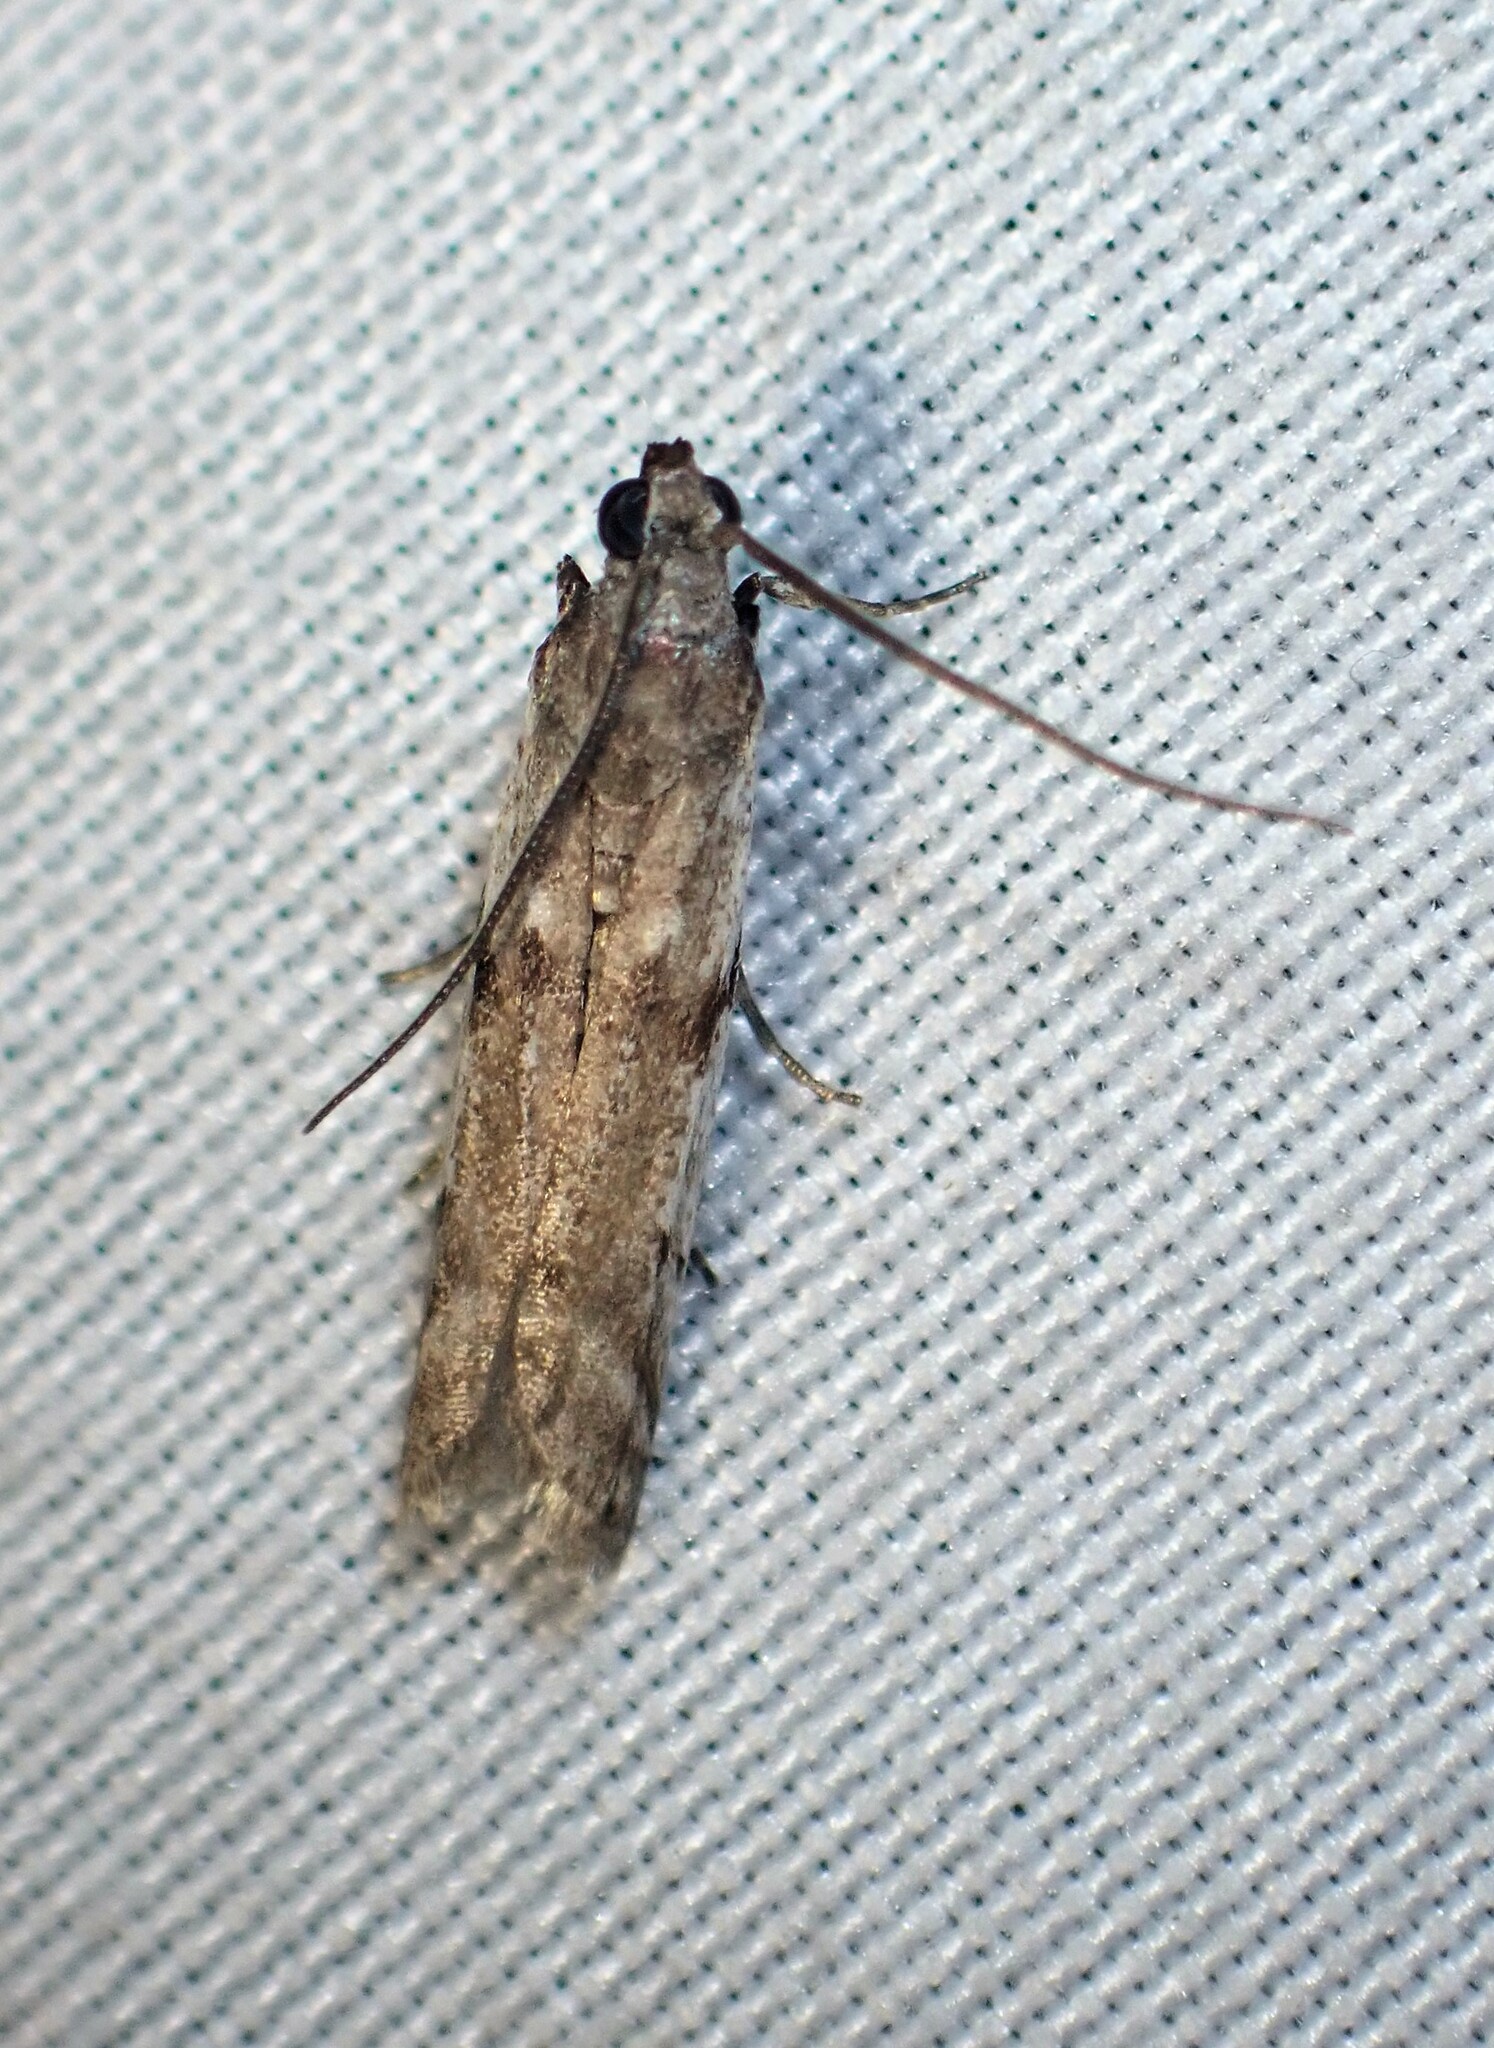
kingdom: Animalia
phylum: Arthropoda
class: Insecta
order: Lepidoptera
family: Pyralidae
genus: Phycitodes
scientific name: Phycitodes albatella
